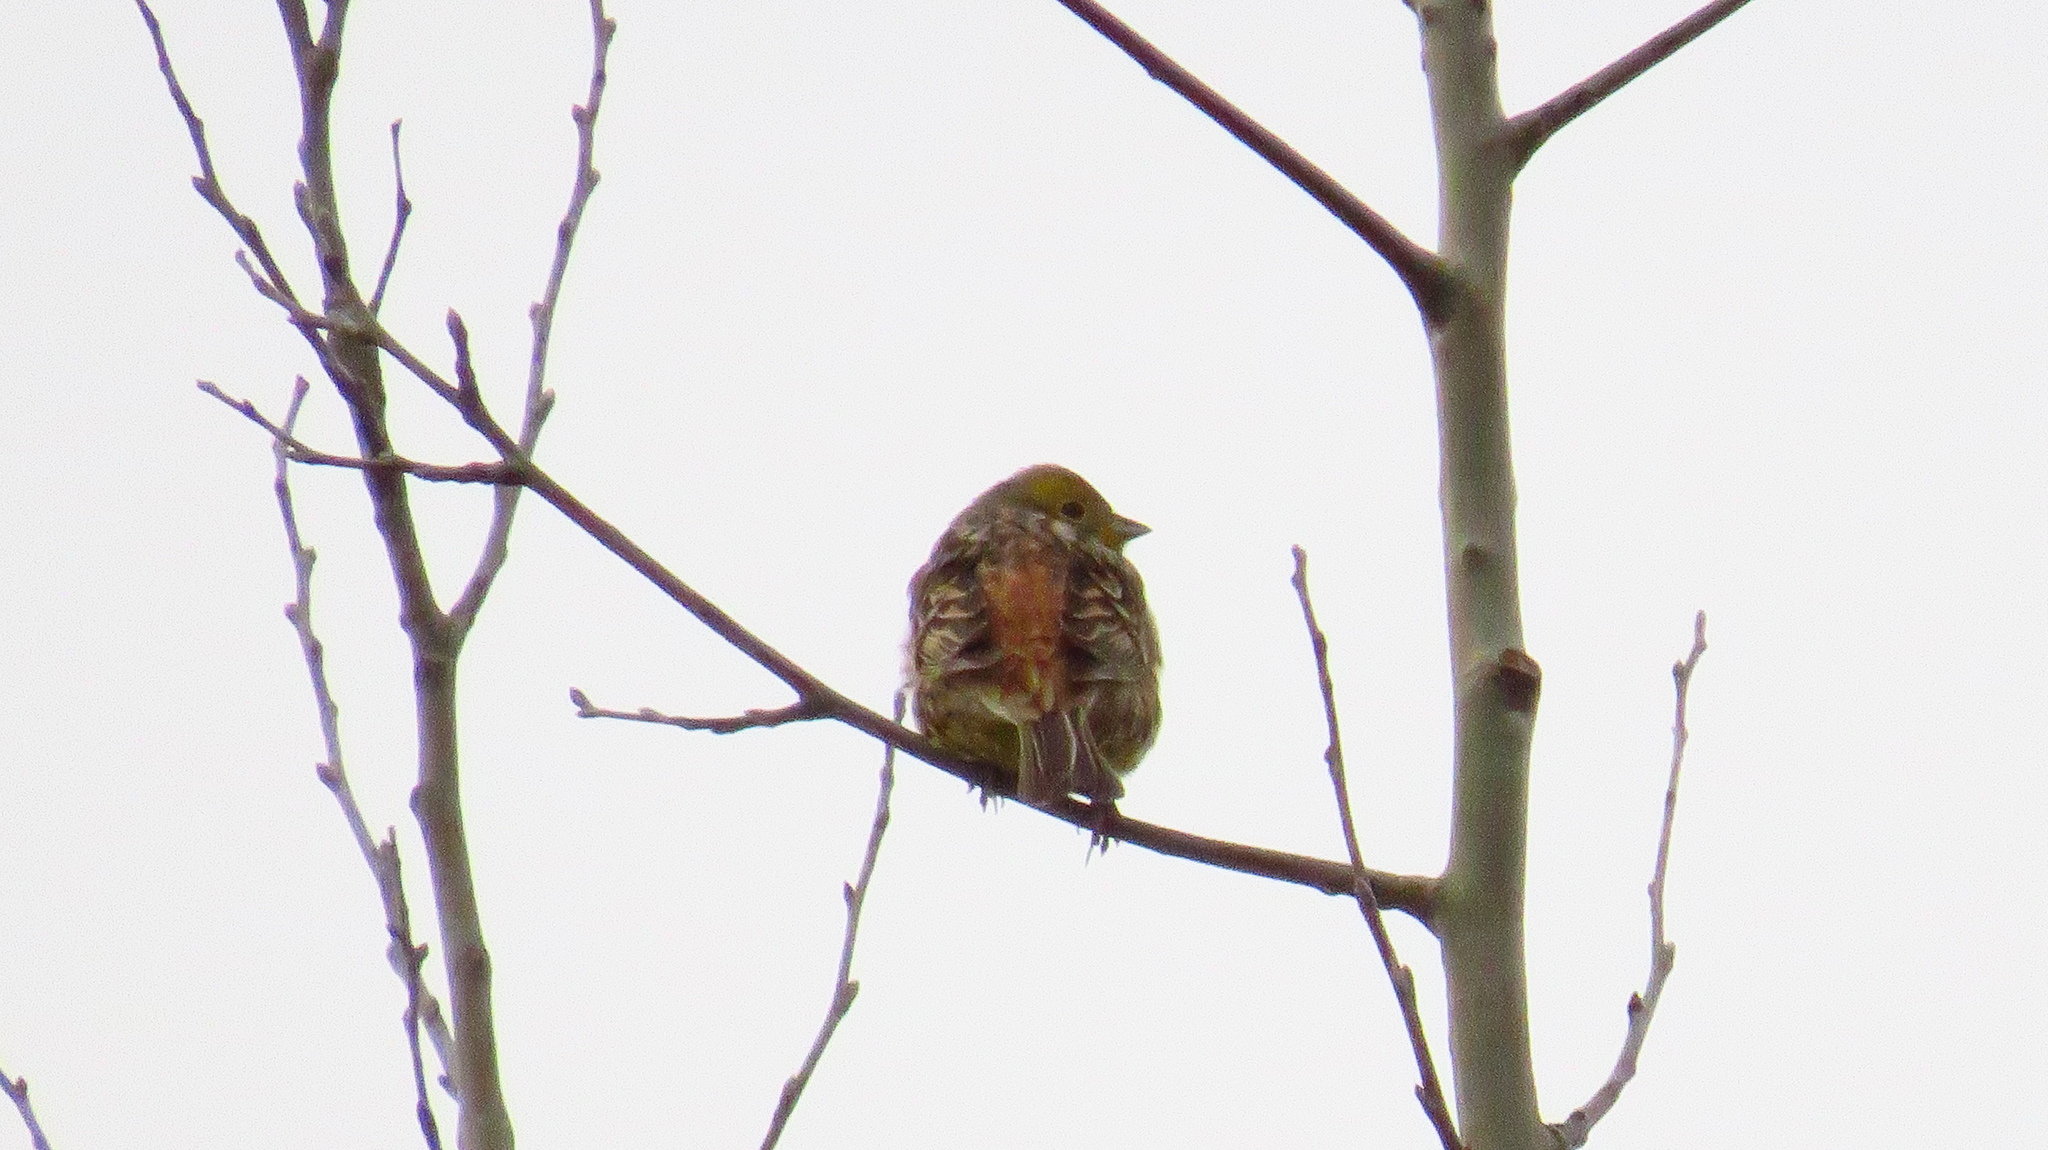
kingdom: Animalia
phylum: Chordata
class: Aves
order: Passeriformes
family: Emberizidae
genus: Emberiza
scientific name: Emberiza citrinella
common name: Yellowhammer
